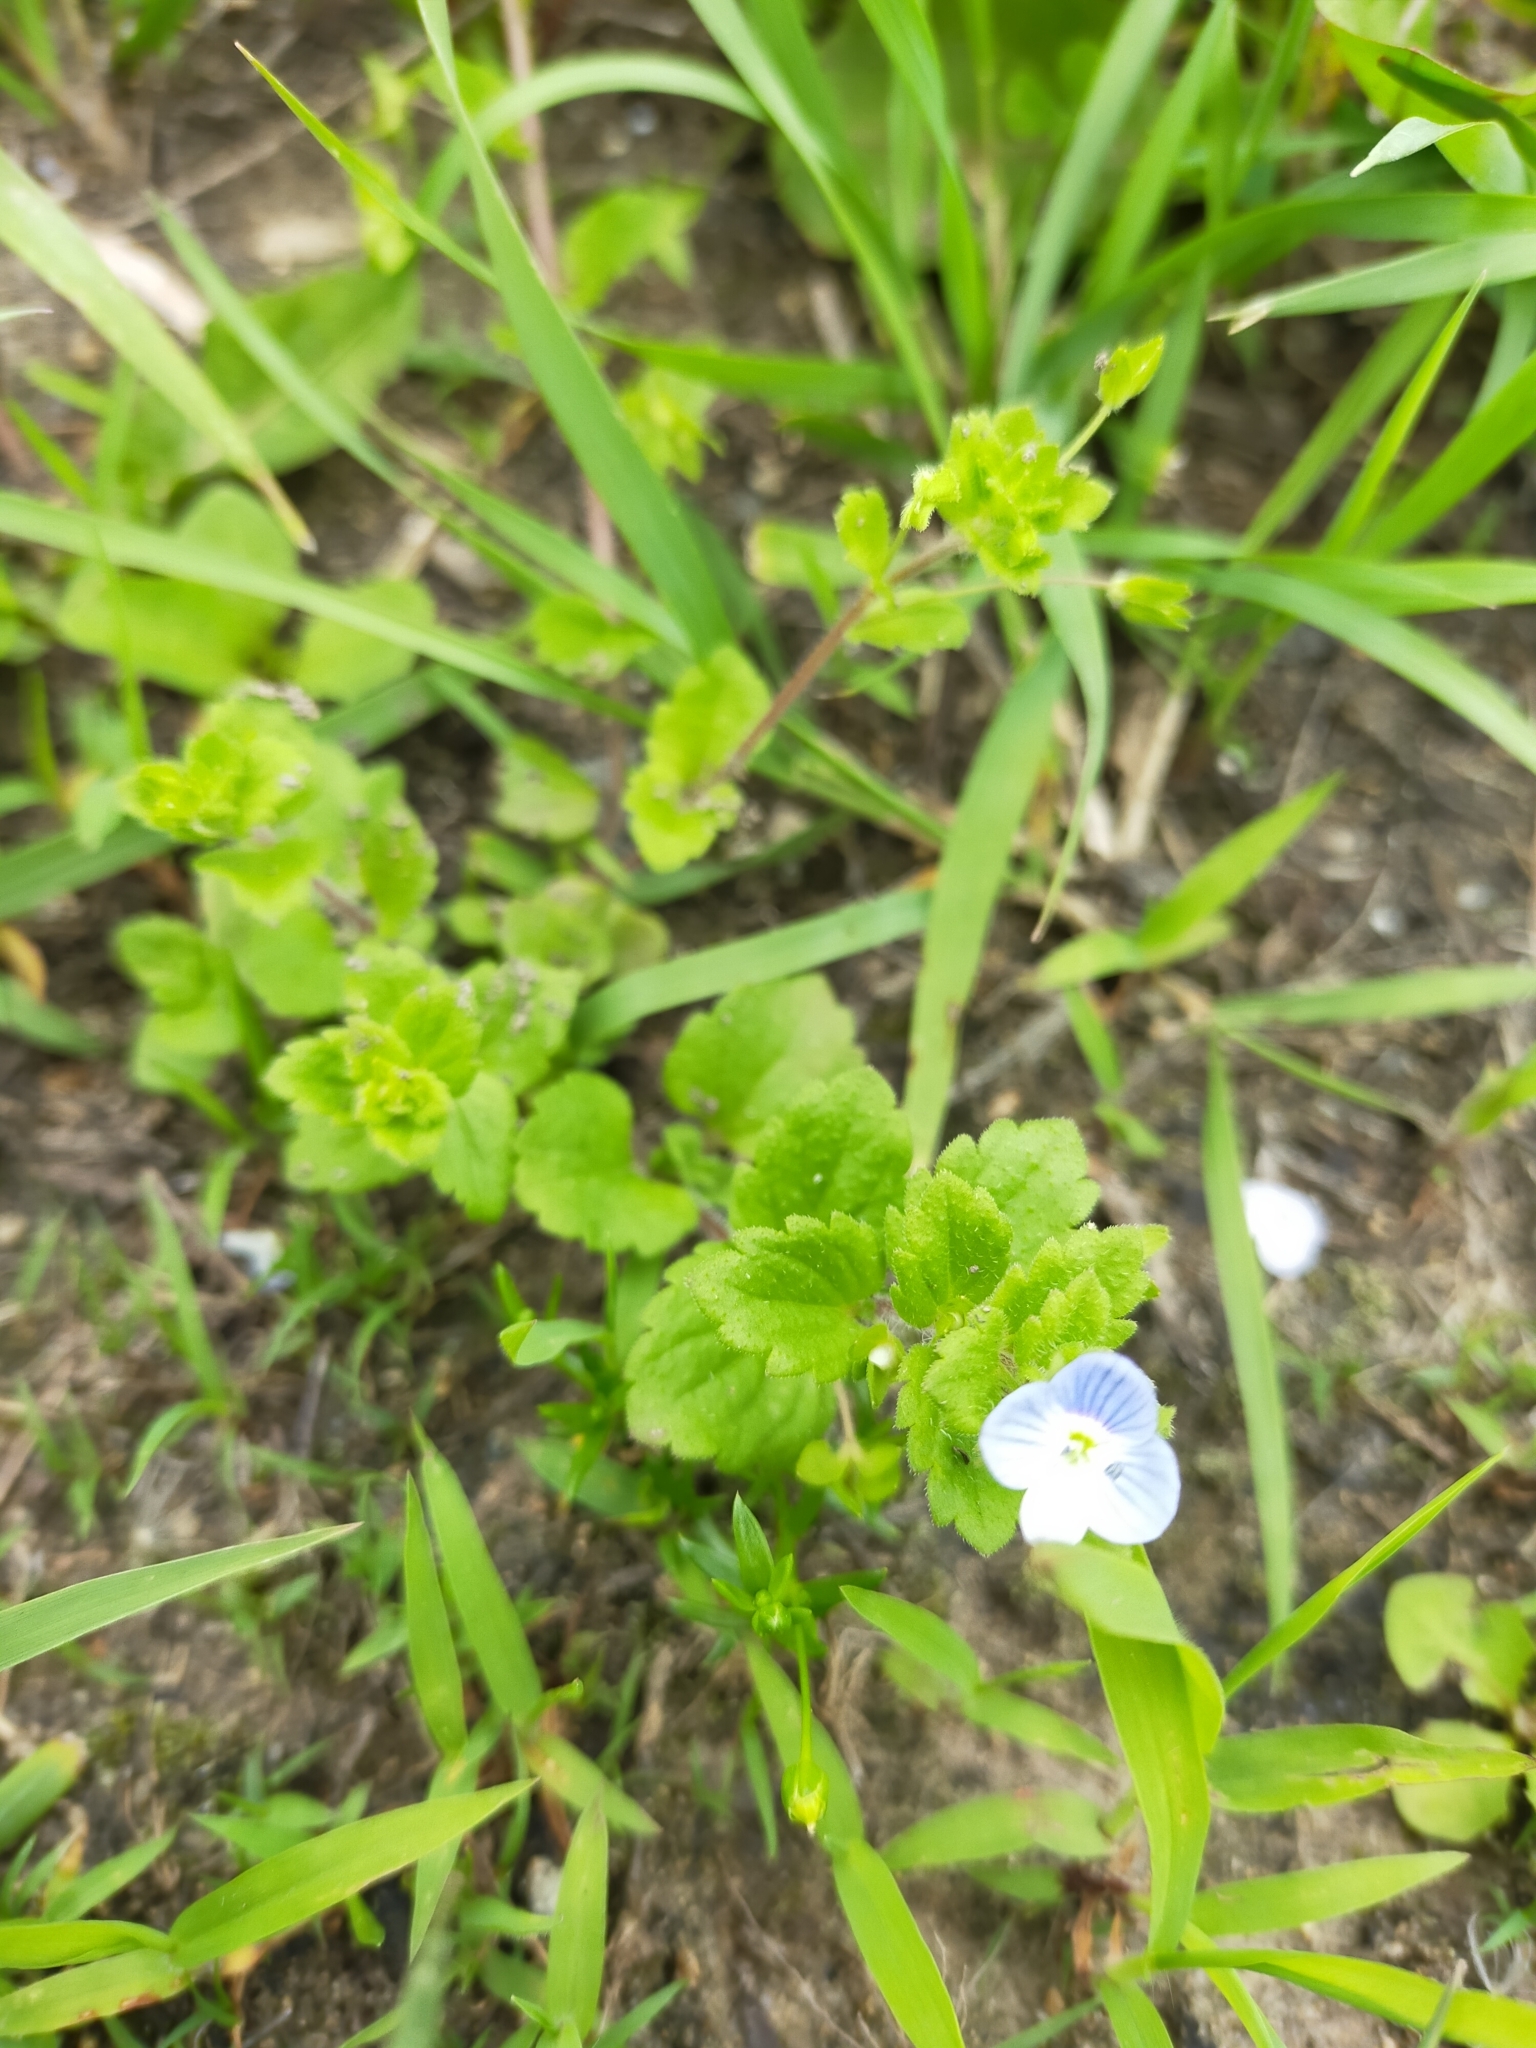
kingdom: Plantae
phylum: Tracheophyta
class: Magnoliopsida
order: Lamiales
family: Plantaginaceae
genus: Veronica
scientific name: Veronica persica
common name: Common field-speedwell
